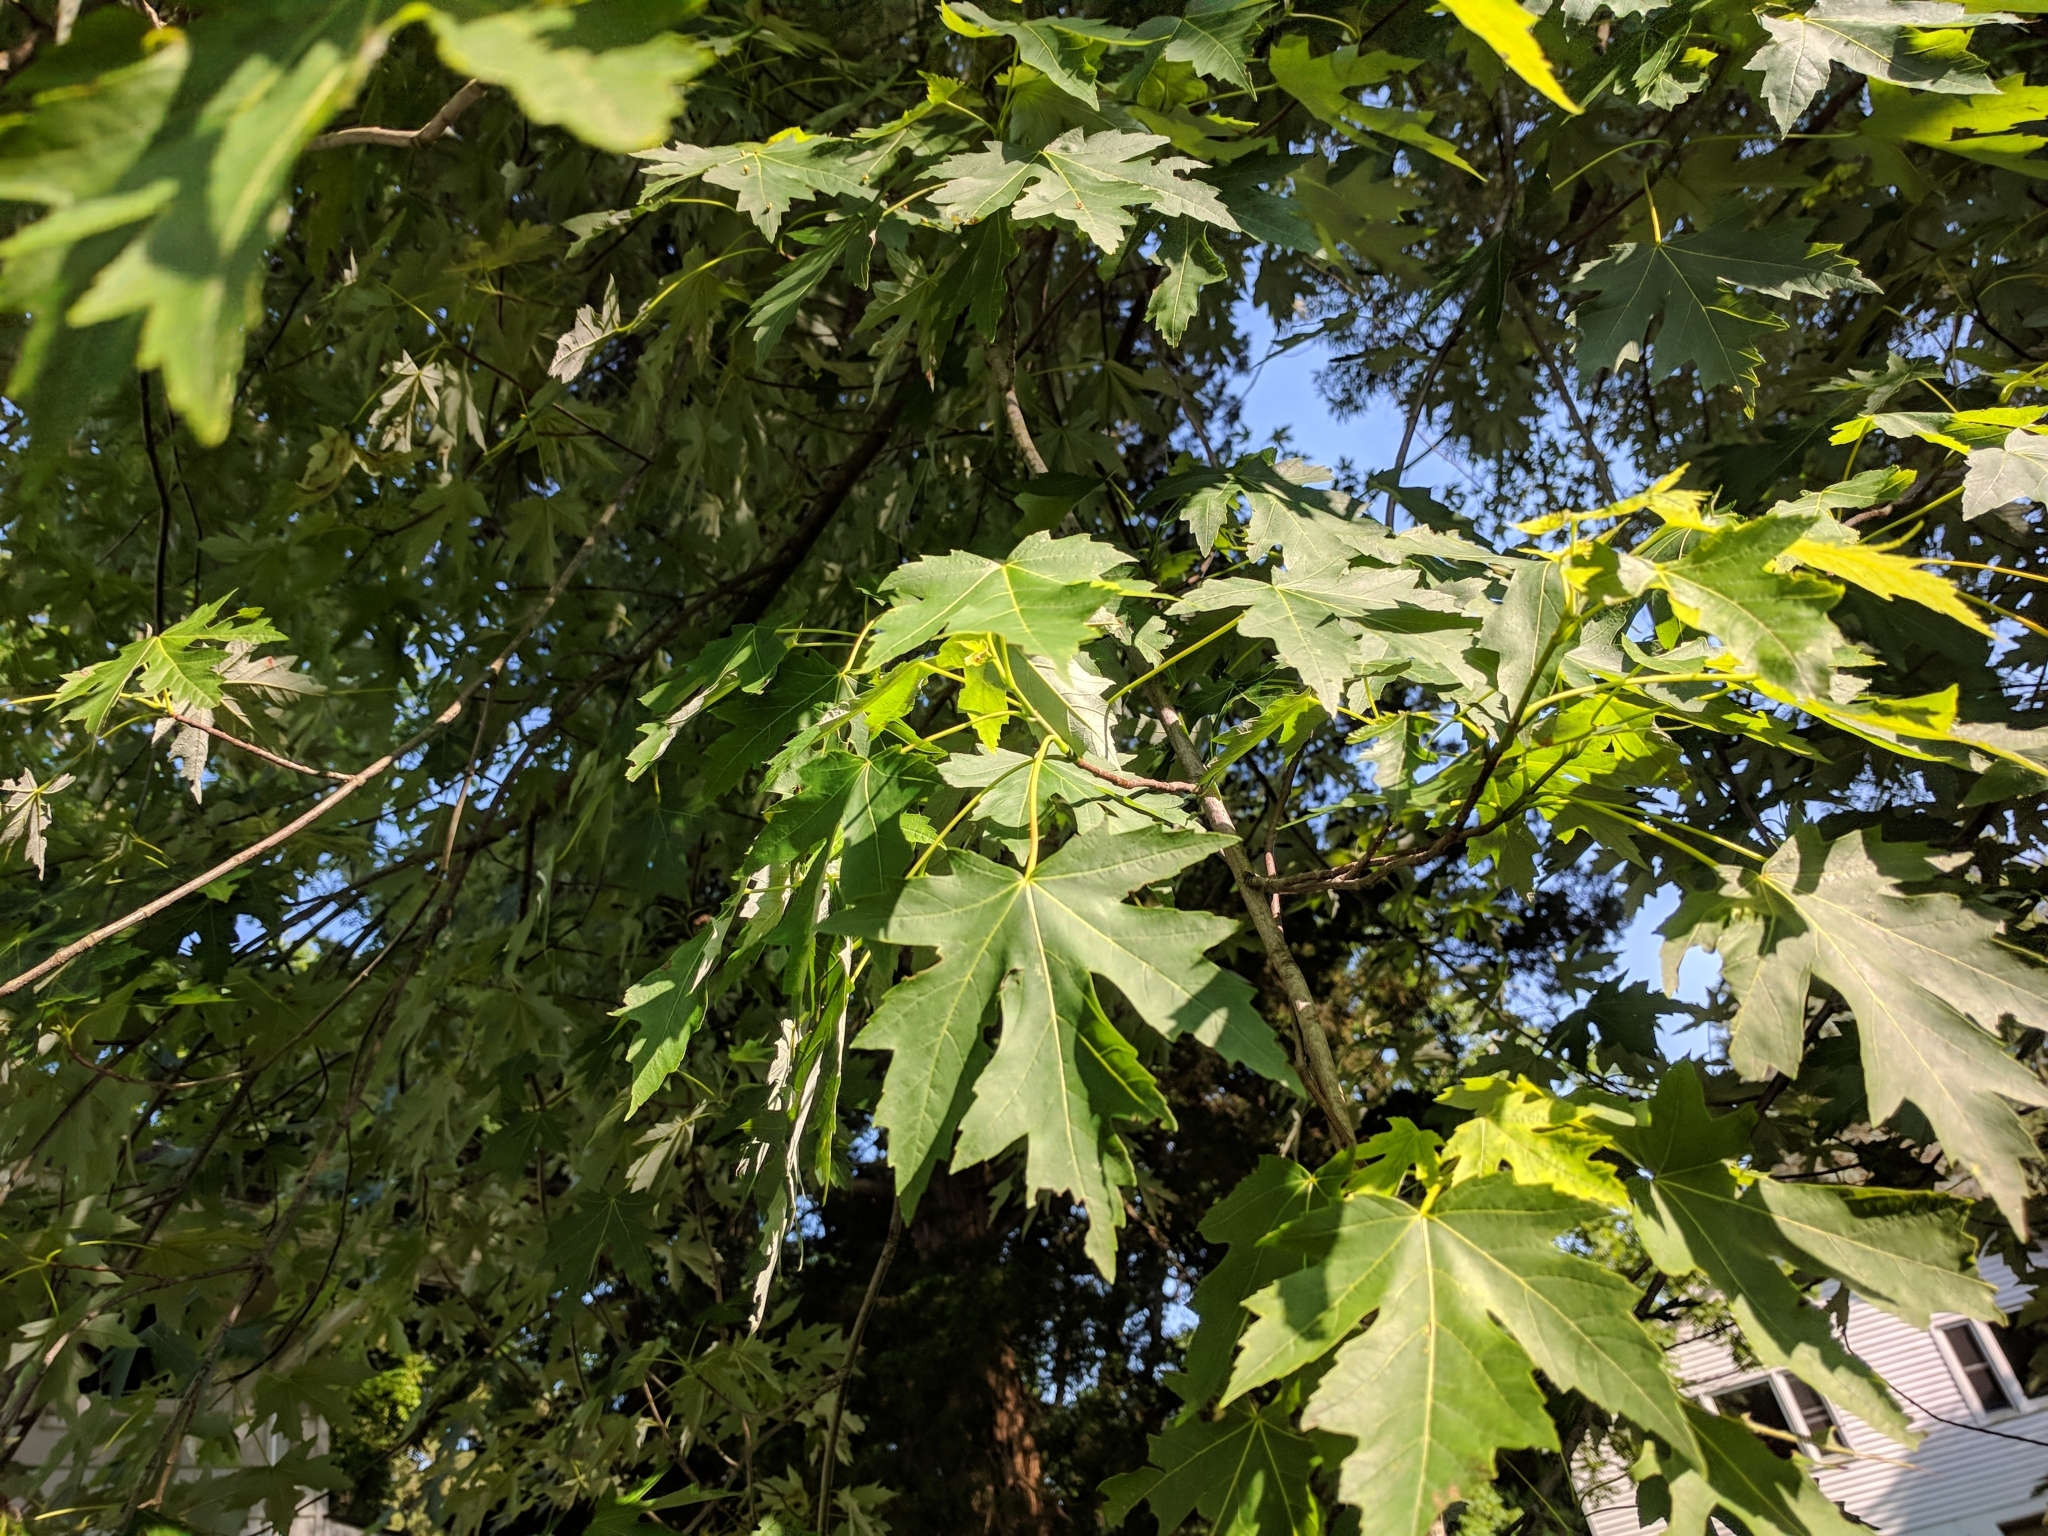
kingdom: Plantae
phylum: Tracheophyta
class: Magnoliopsida
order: Sapindales
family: Sapindaceae
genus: Acer
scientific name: Acer saccharinum
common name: Silver maple
